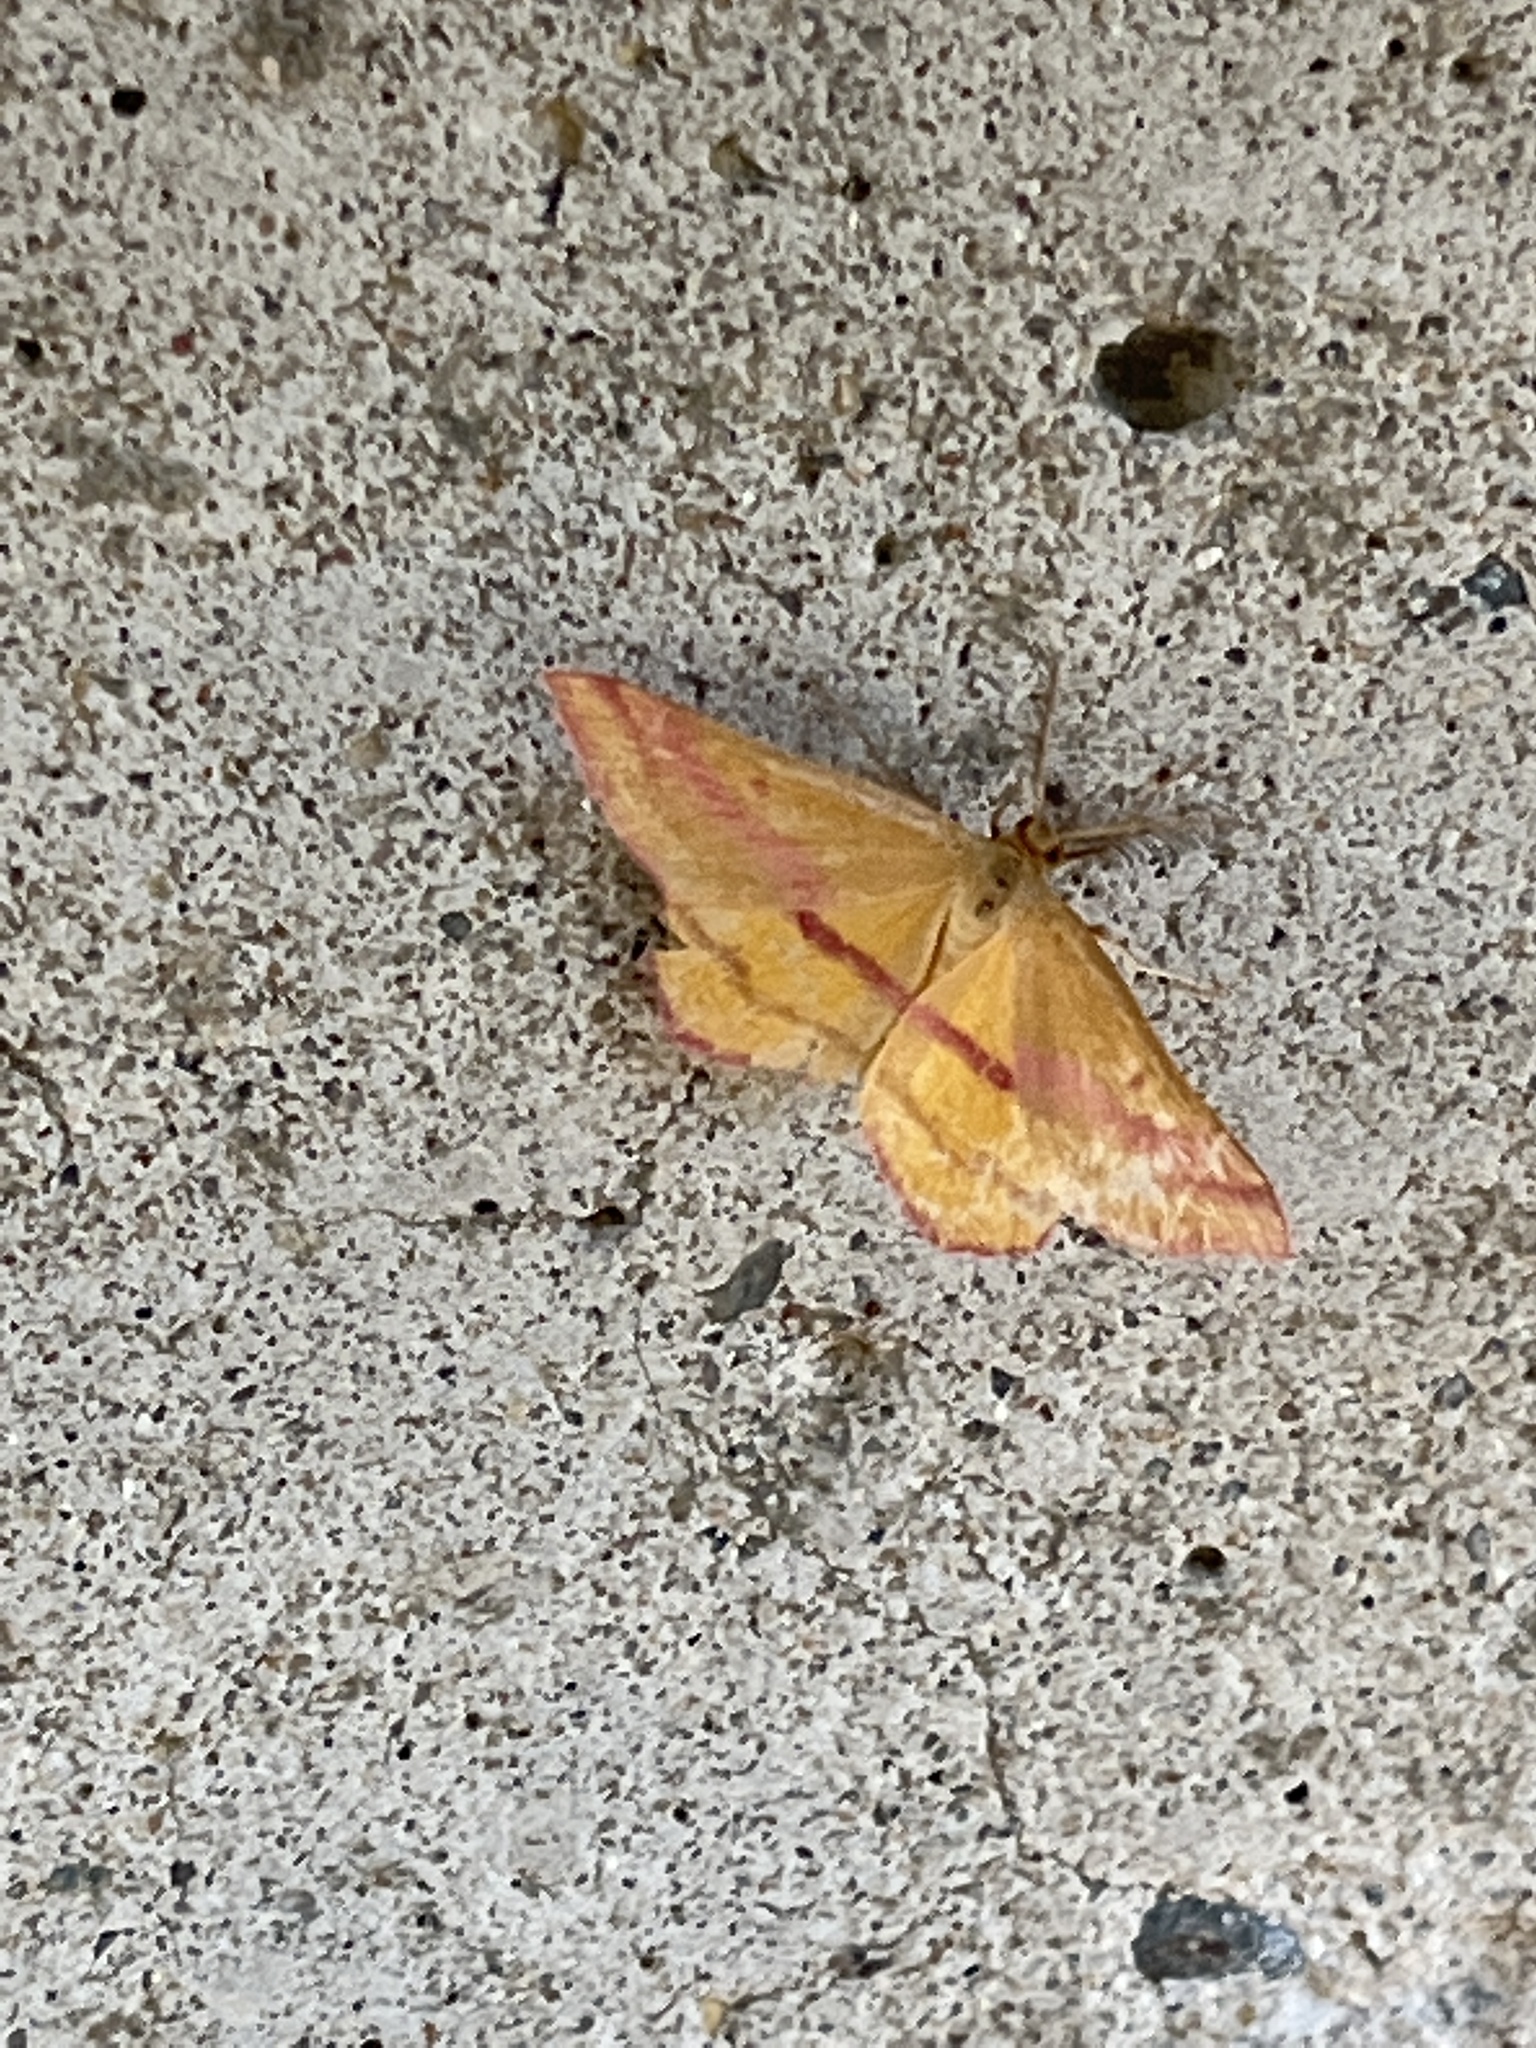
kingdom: Animalia
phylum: Arthropoda
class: Insecta
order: Lepidoptera
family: Geometridae
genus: Haematopis
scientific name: Haematopis grataria
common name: Chickweed geometer
